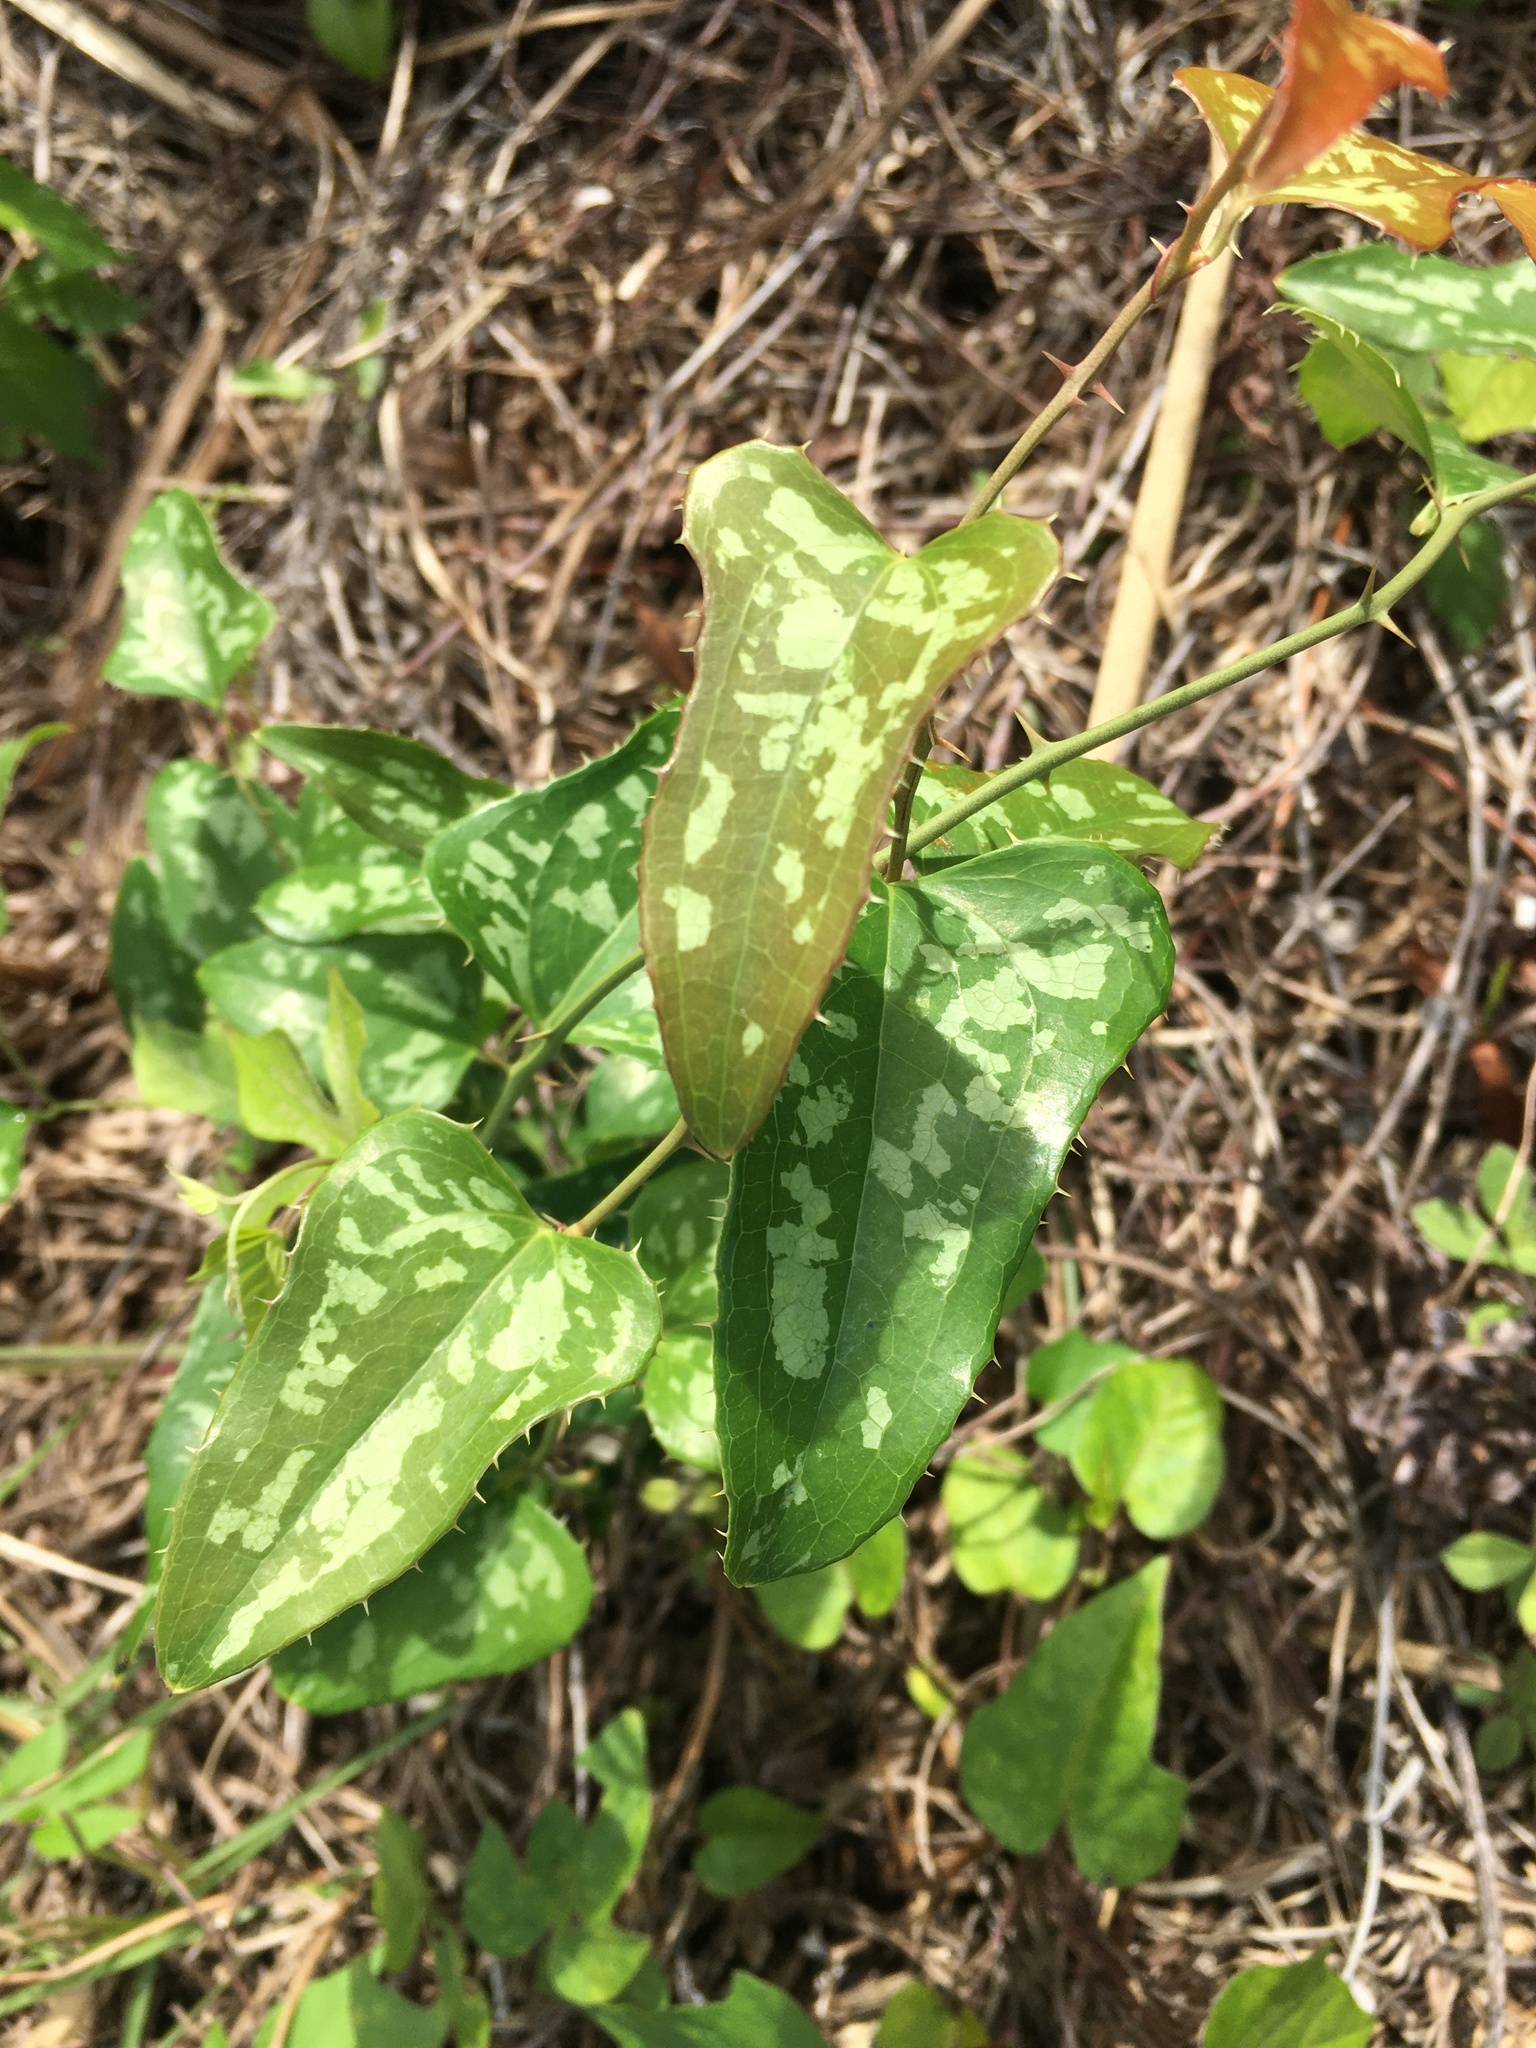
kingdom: Plantae
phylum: Tracheophyta
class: Liliopsida
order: Liliales
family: Smilacaceae
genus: Smilax
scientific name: Smilax bona-nox
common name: Catbrier
